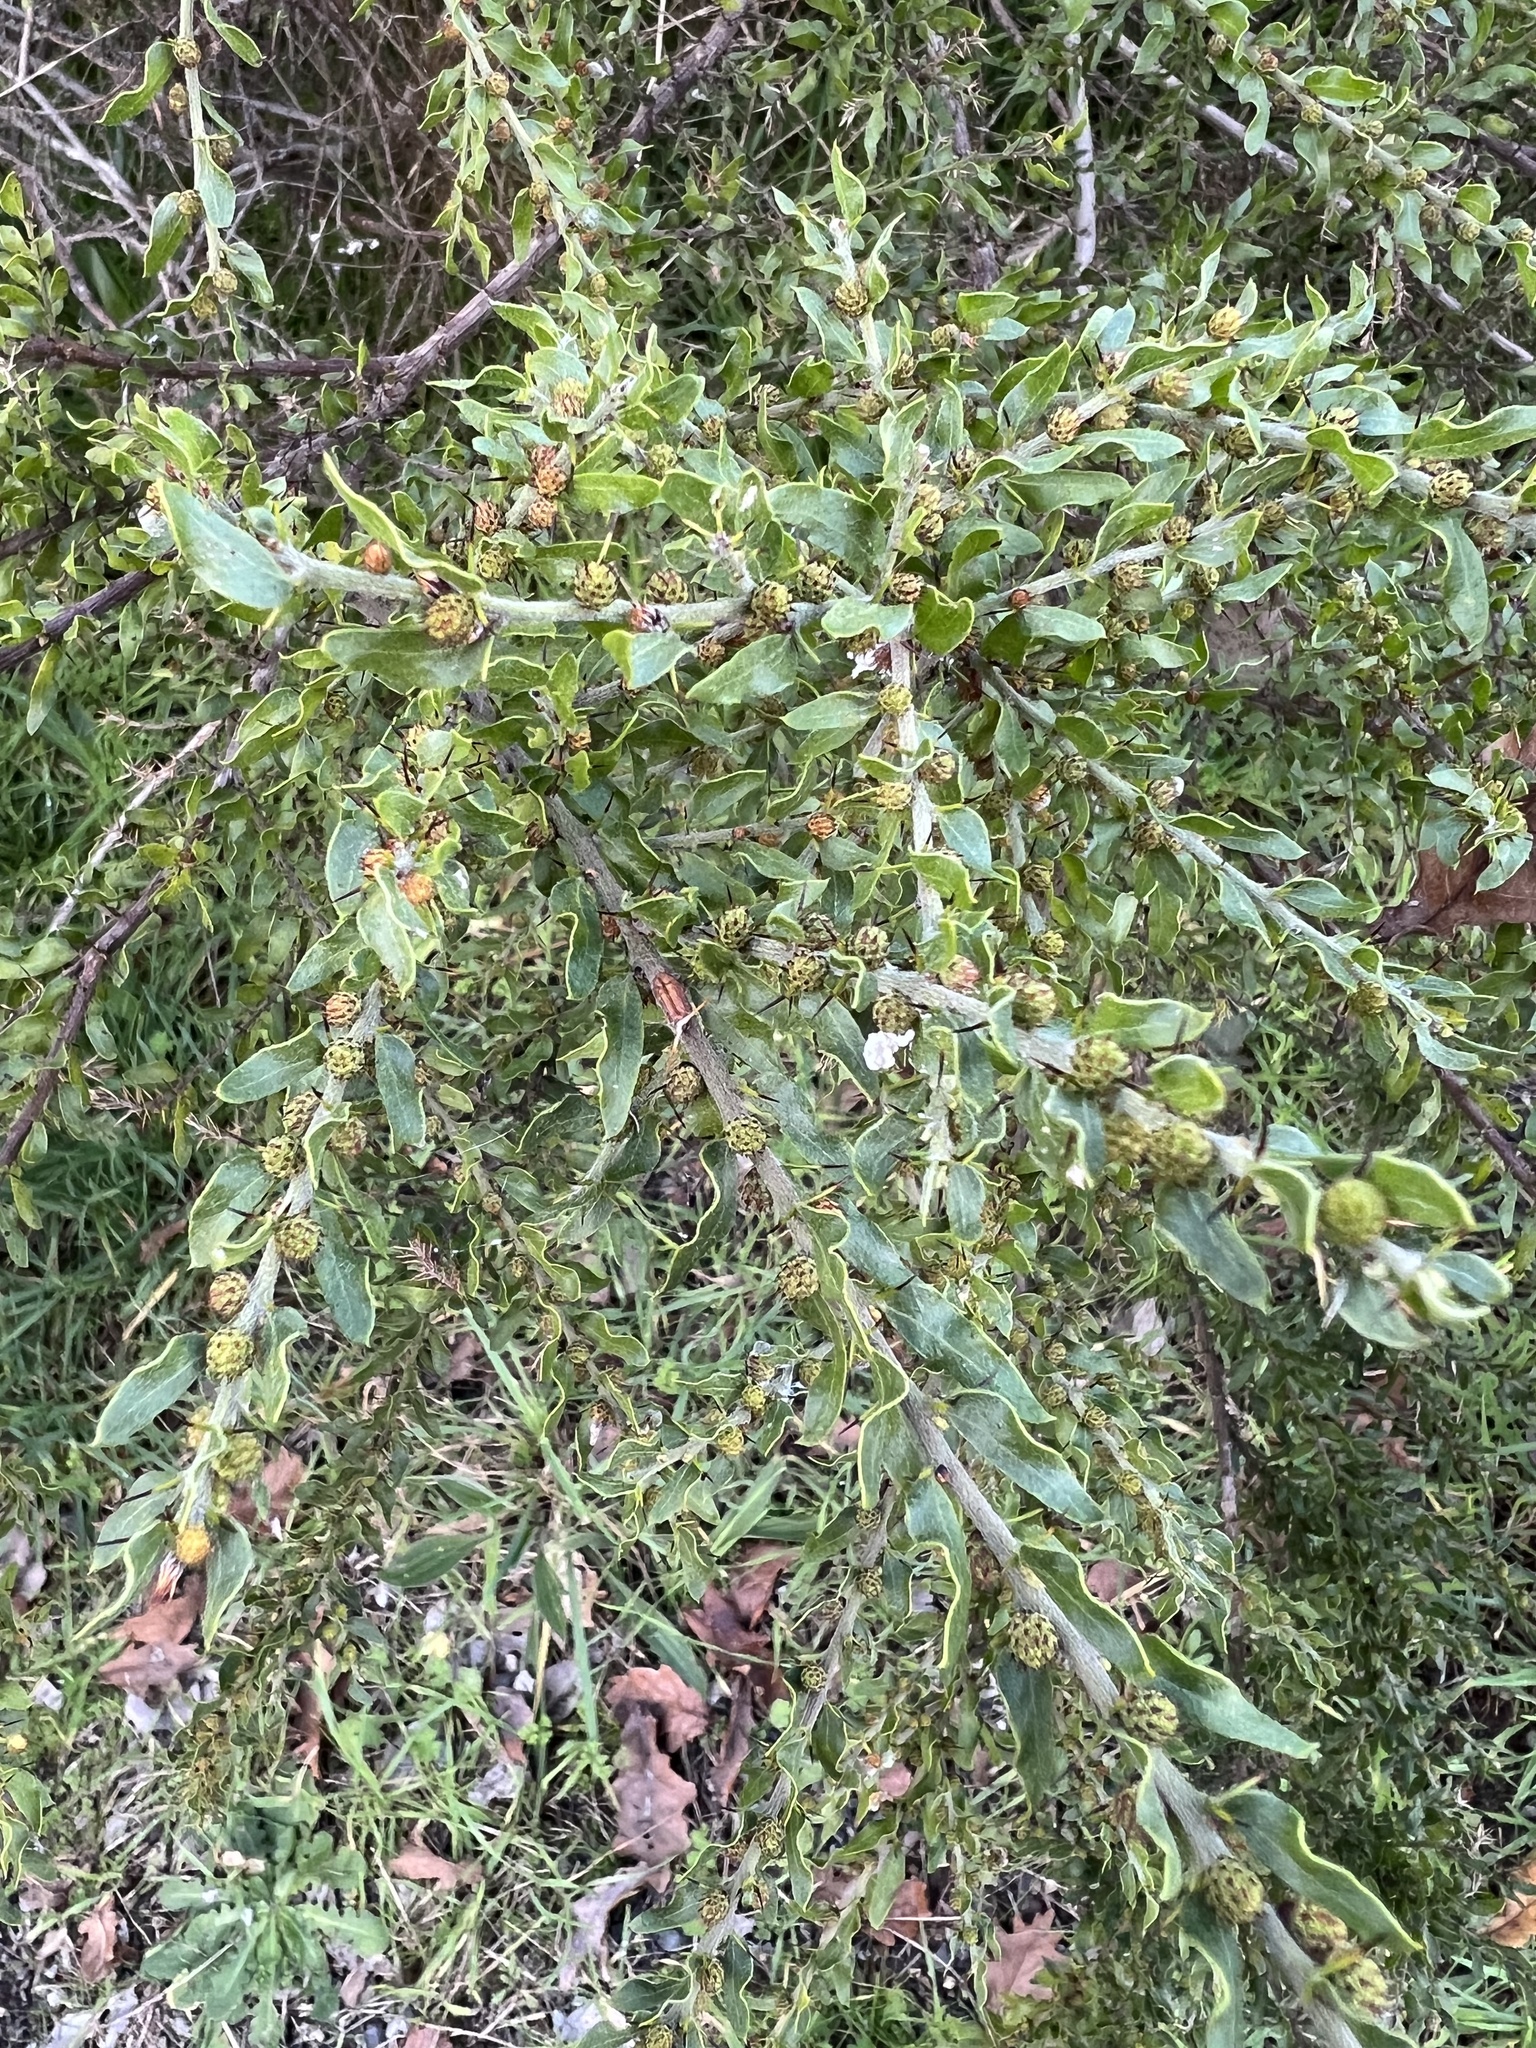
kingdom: Plantae
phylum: Tracheophyta
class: Magnoliopsida
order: Fabales
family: Fabaceae
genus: Acacia
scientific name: Acacia paradoxa
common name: Paradox acacia
